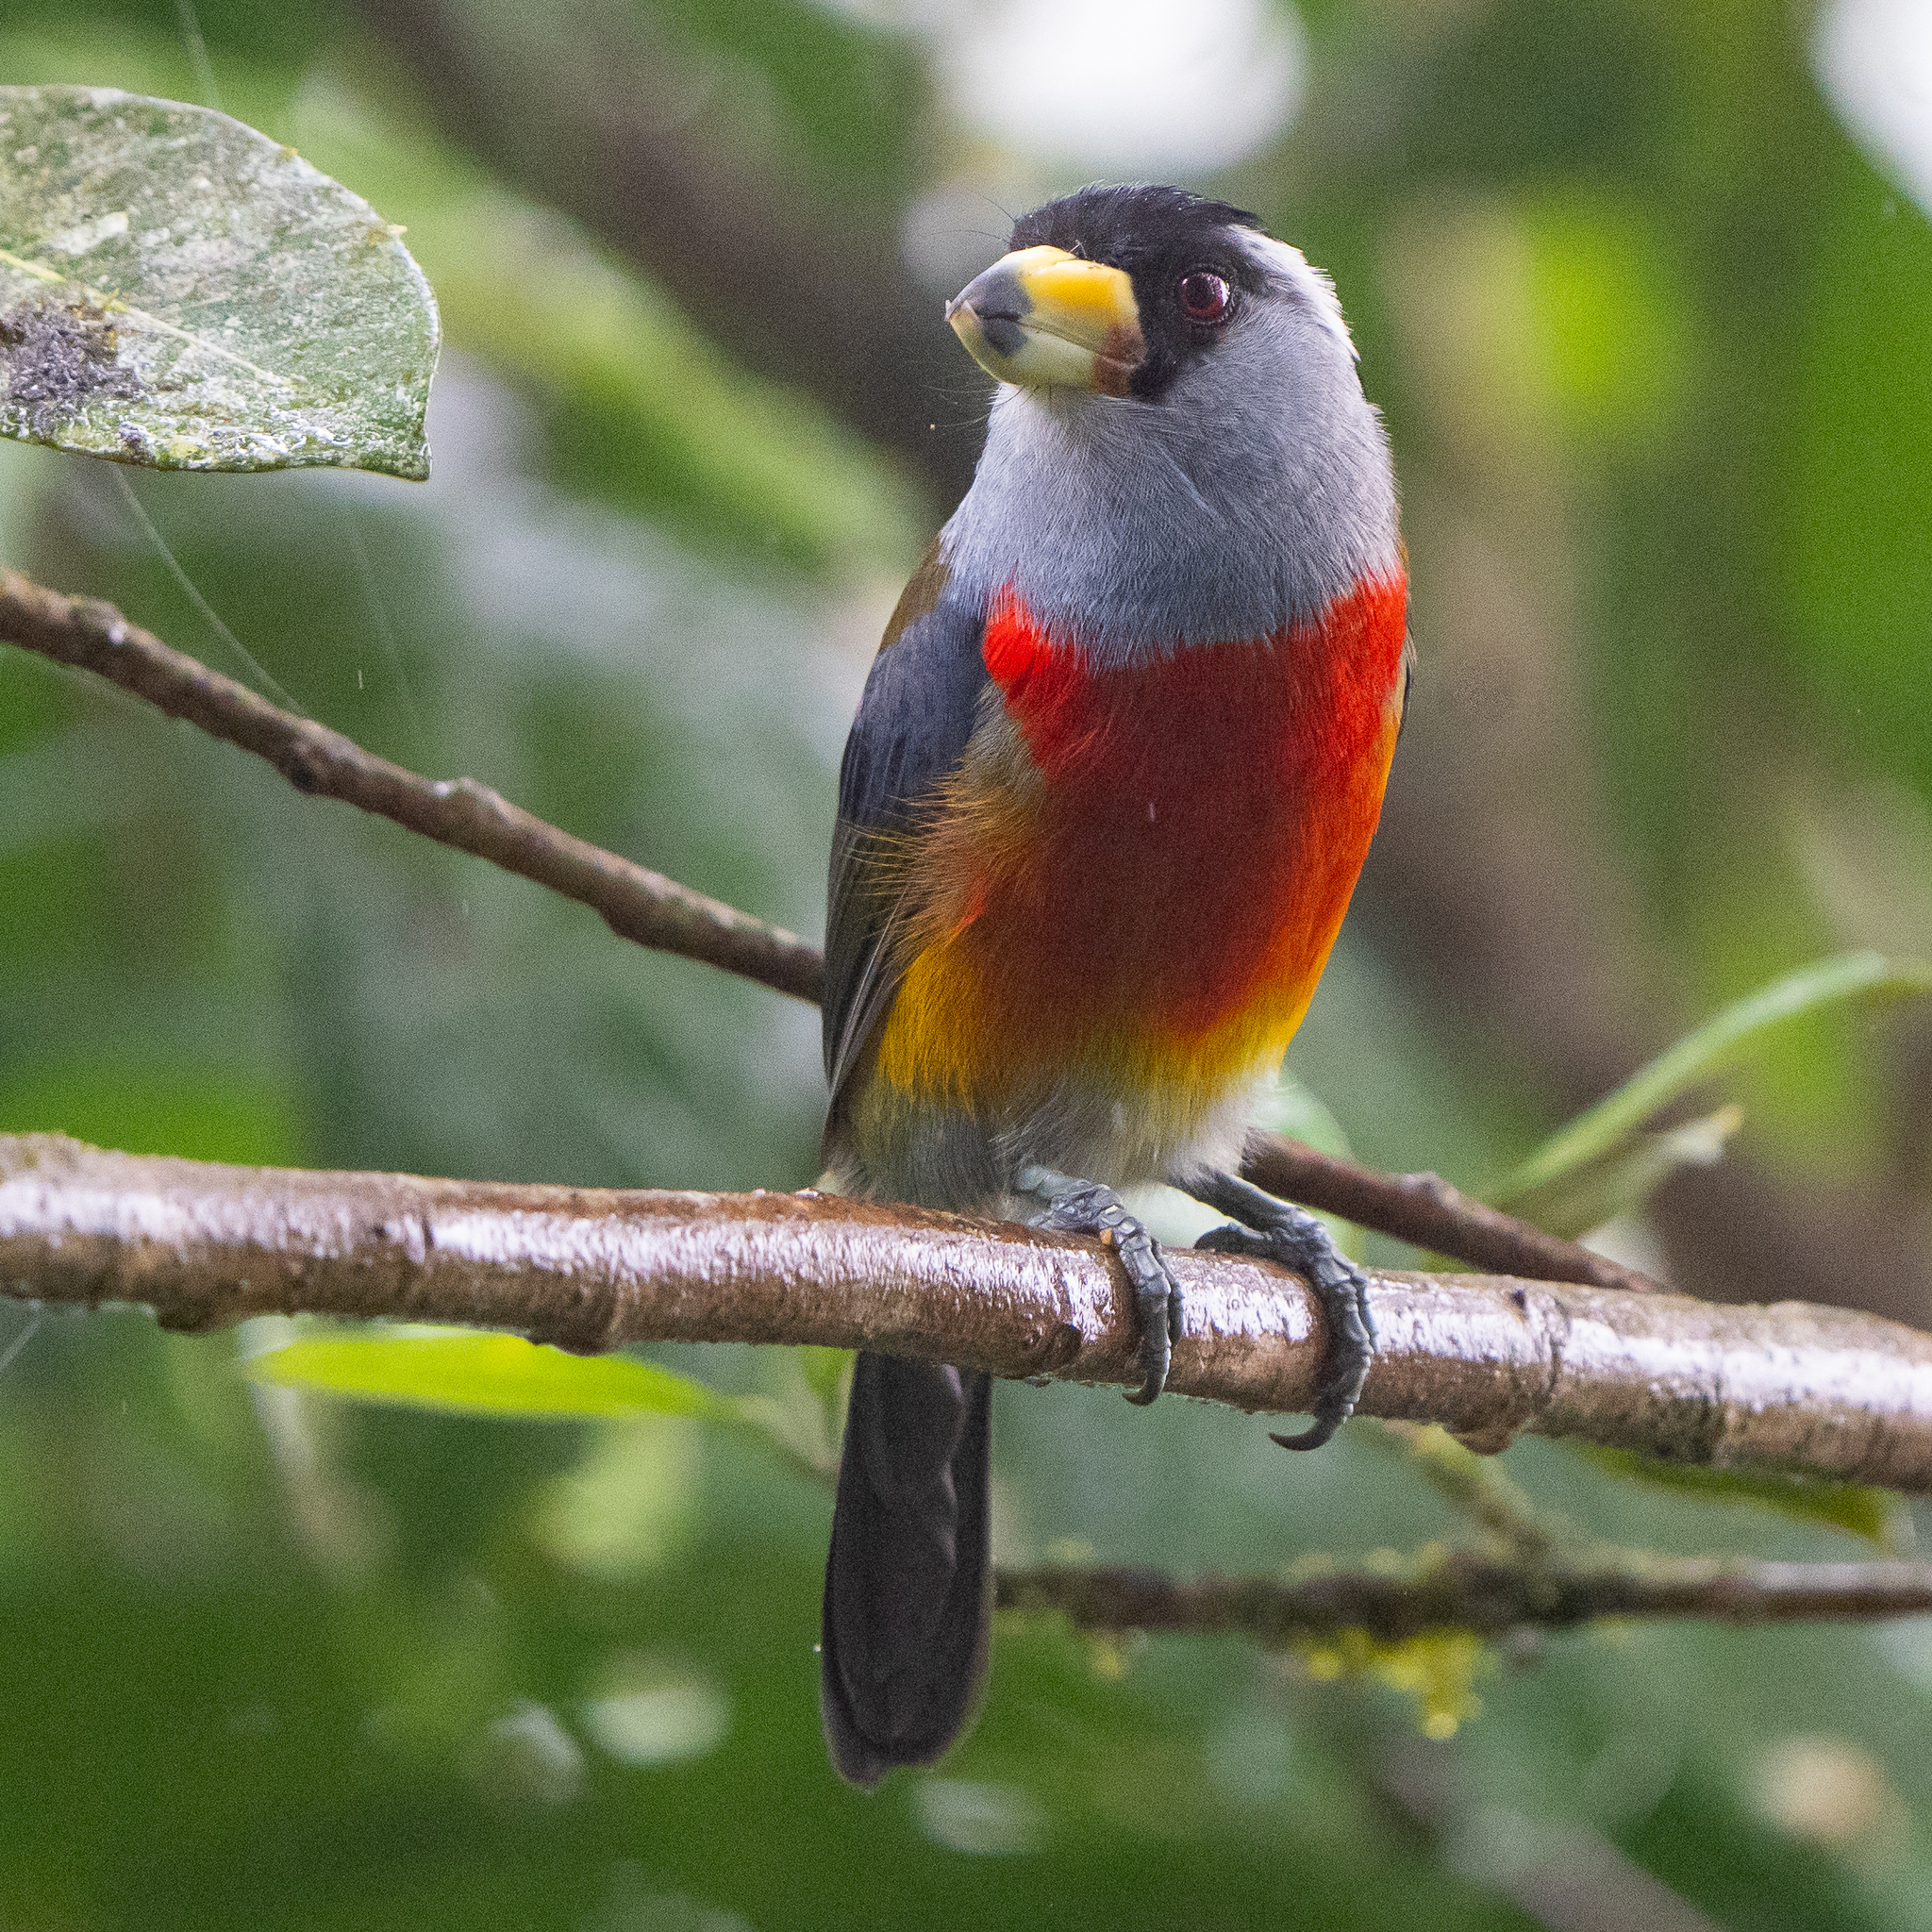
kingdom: Animalia
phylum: Chordata
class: Aves
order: Piciformes
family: Semnornithidae
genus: Semnornis
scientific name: Semnornis ramphastinus
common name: Toucan barbet
